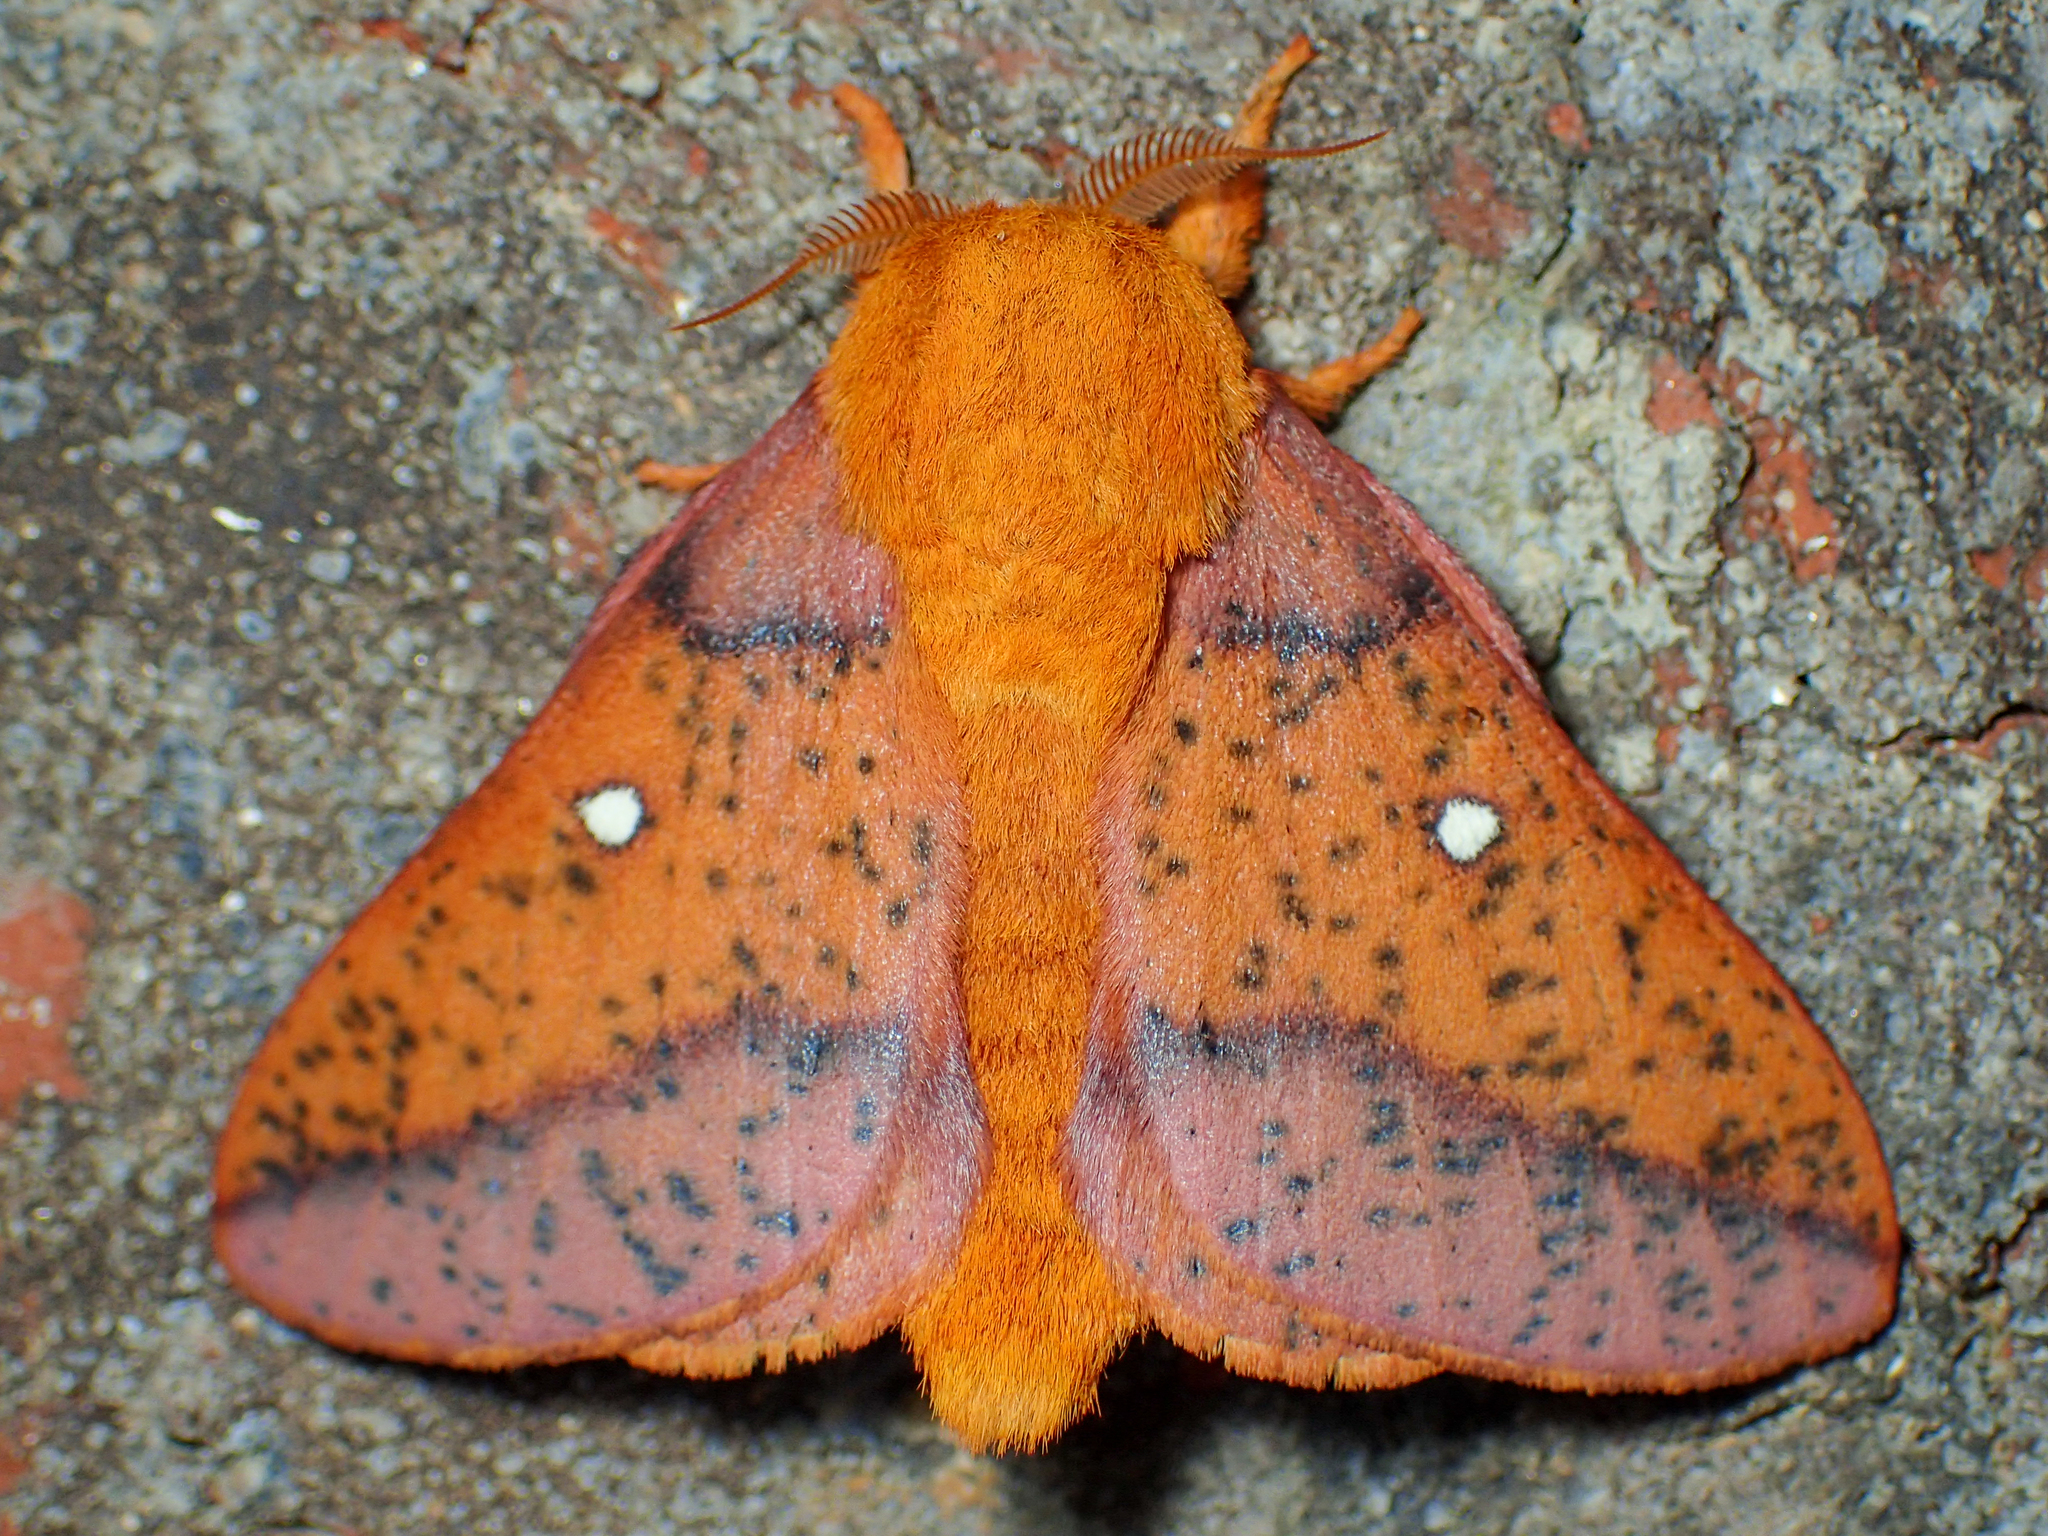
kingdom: Animalia
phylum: Arthropoda
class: Insecta
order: Lepidoptera
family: Saturniidae
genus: Anisota
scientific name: Anisota stigma
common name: Spiny oakworm moth
